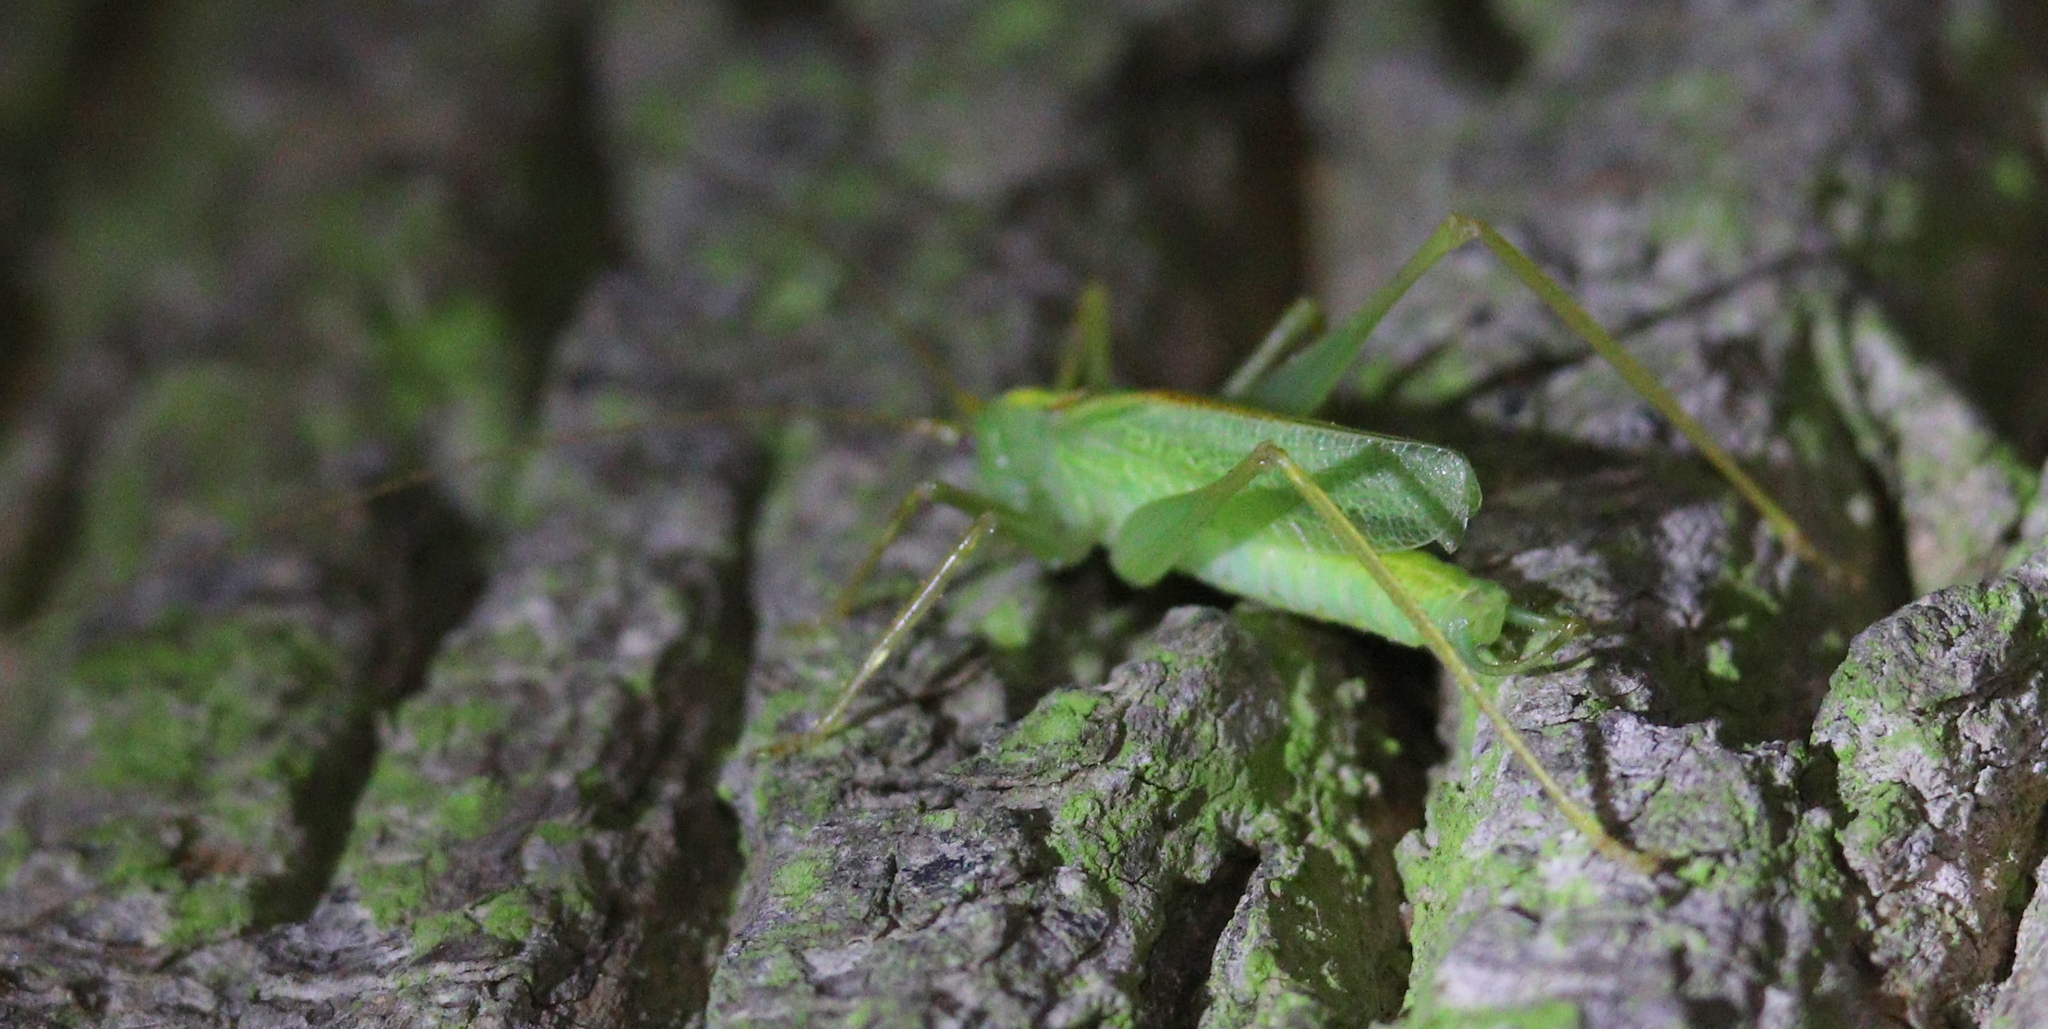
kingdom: Animalia
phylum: Arthropoda
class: Insecta
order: Orthoptera
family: Tettigoniidae
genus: Meconema
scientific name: Meconema thalassinum
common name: Oak bush-cricket
